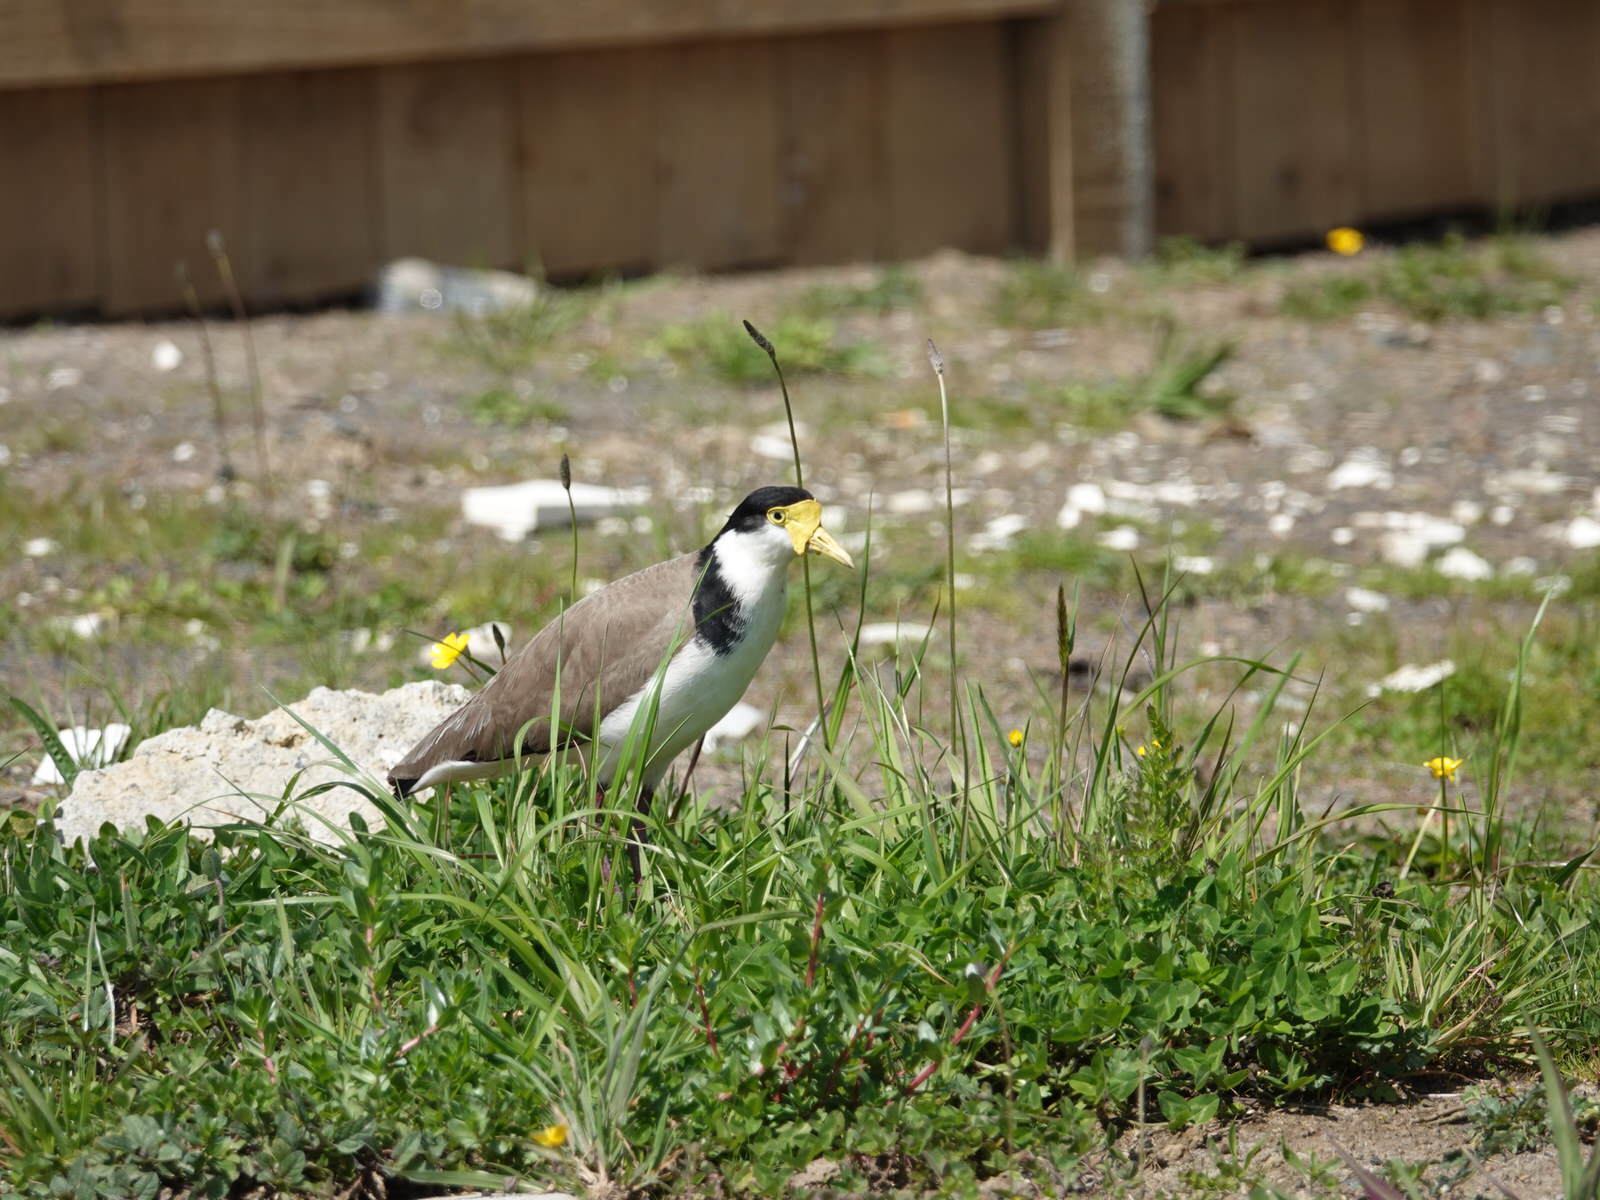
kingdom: Animalia
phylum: Chordata
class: Aves
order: Charadriiformes
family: Charadriidae
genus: Vanellus
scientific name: Vanellus miles
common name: Masked lapwing
